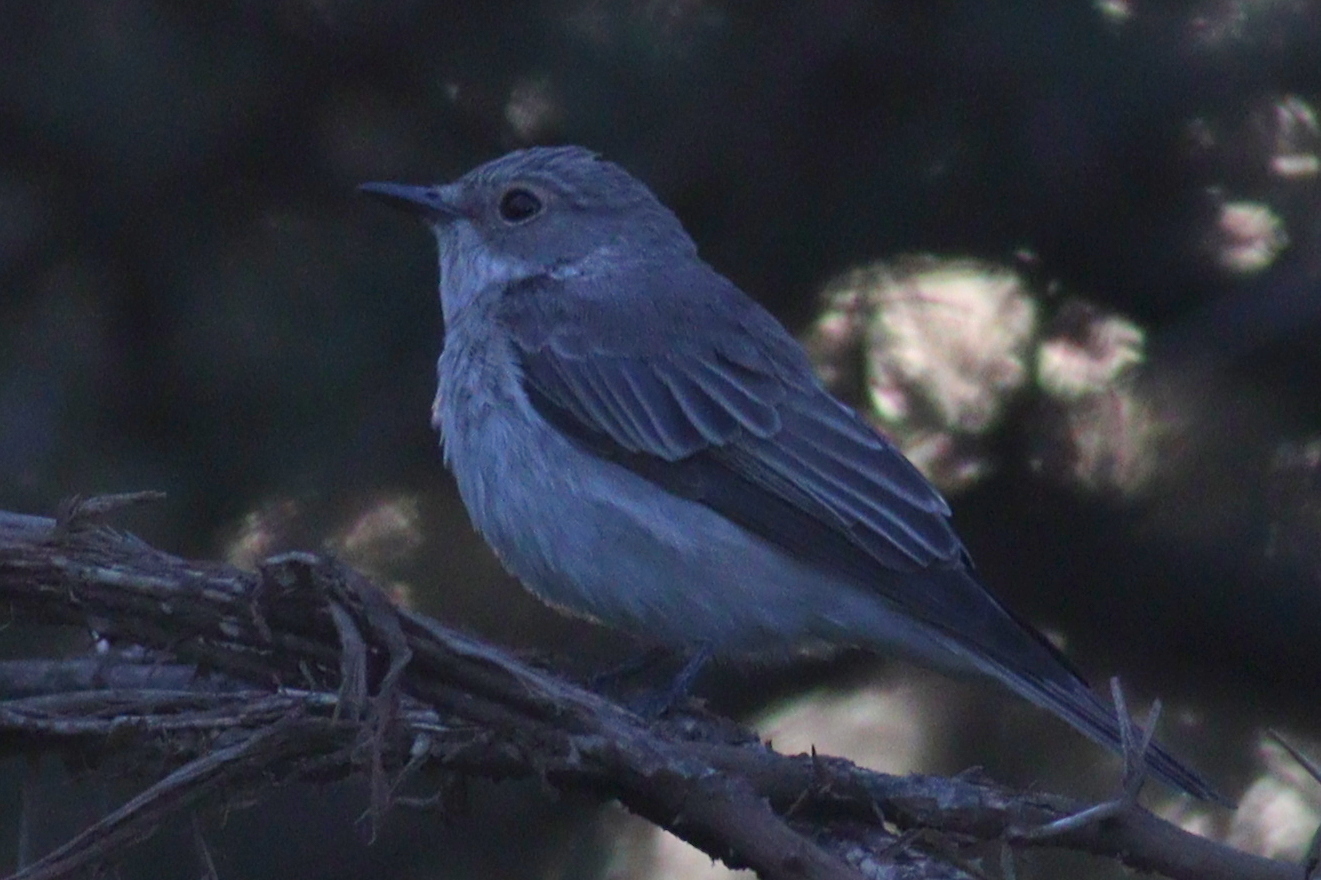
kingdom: Animalia
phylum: Chordata
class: Aves
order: Passeriformes
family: Muscicapidae
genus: Muscicapa
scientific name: Muscicapa striata
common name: Spotted flycatcher
